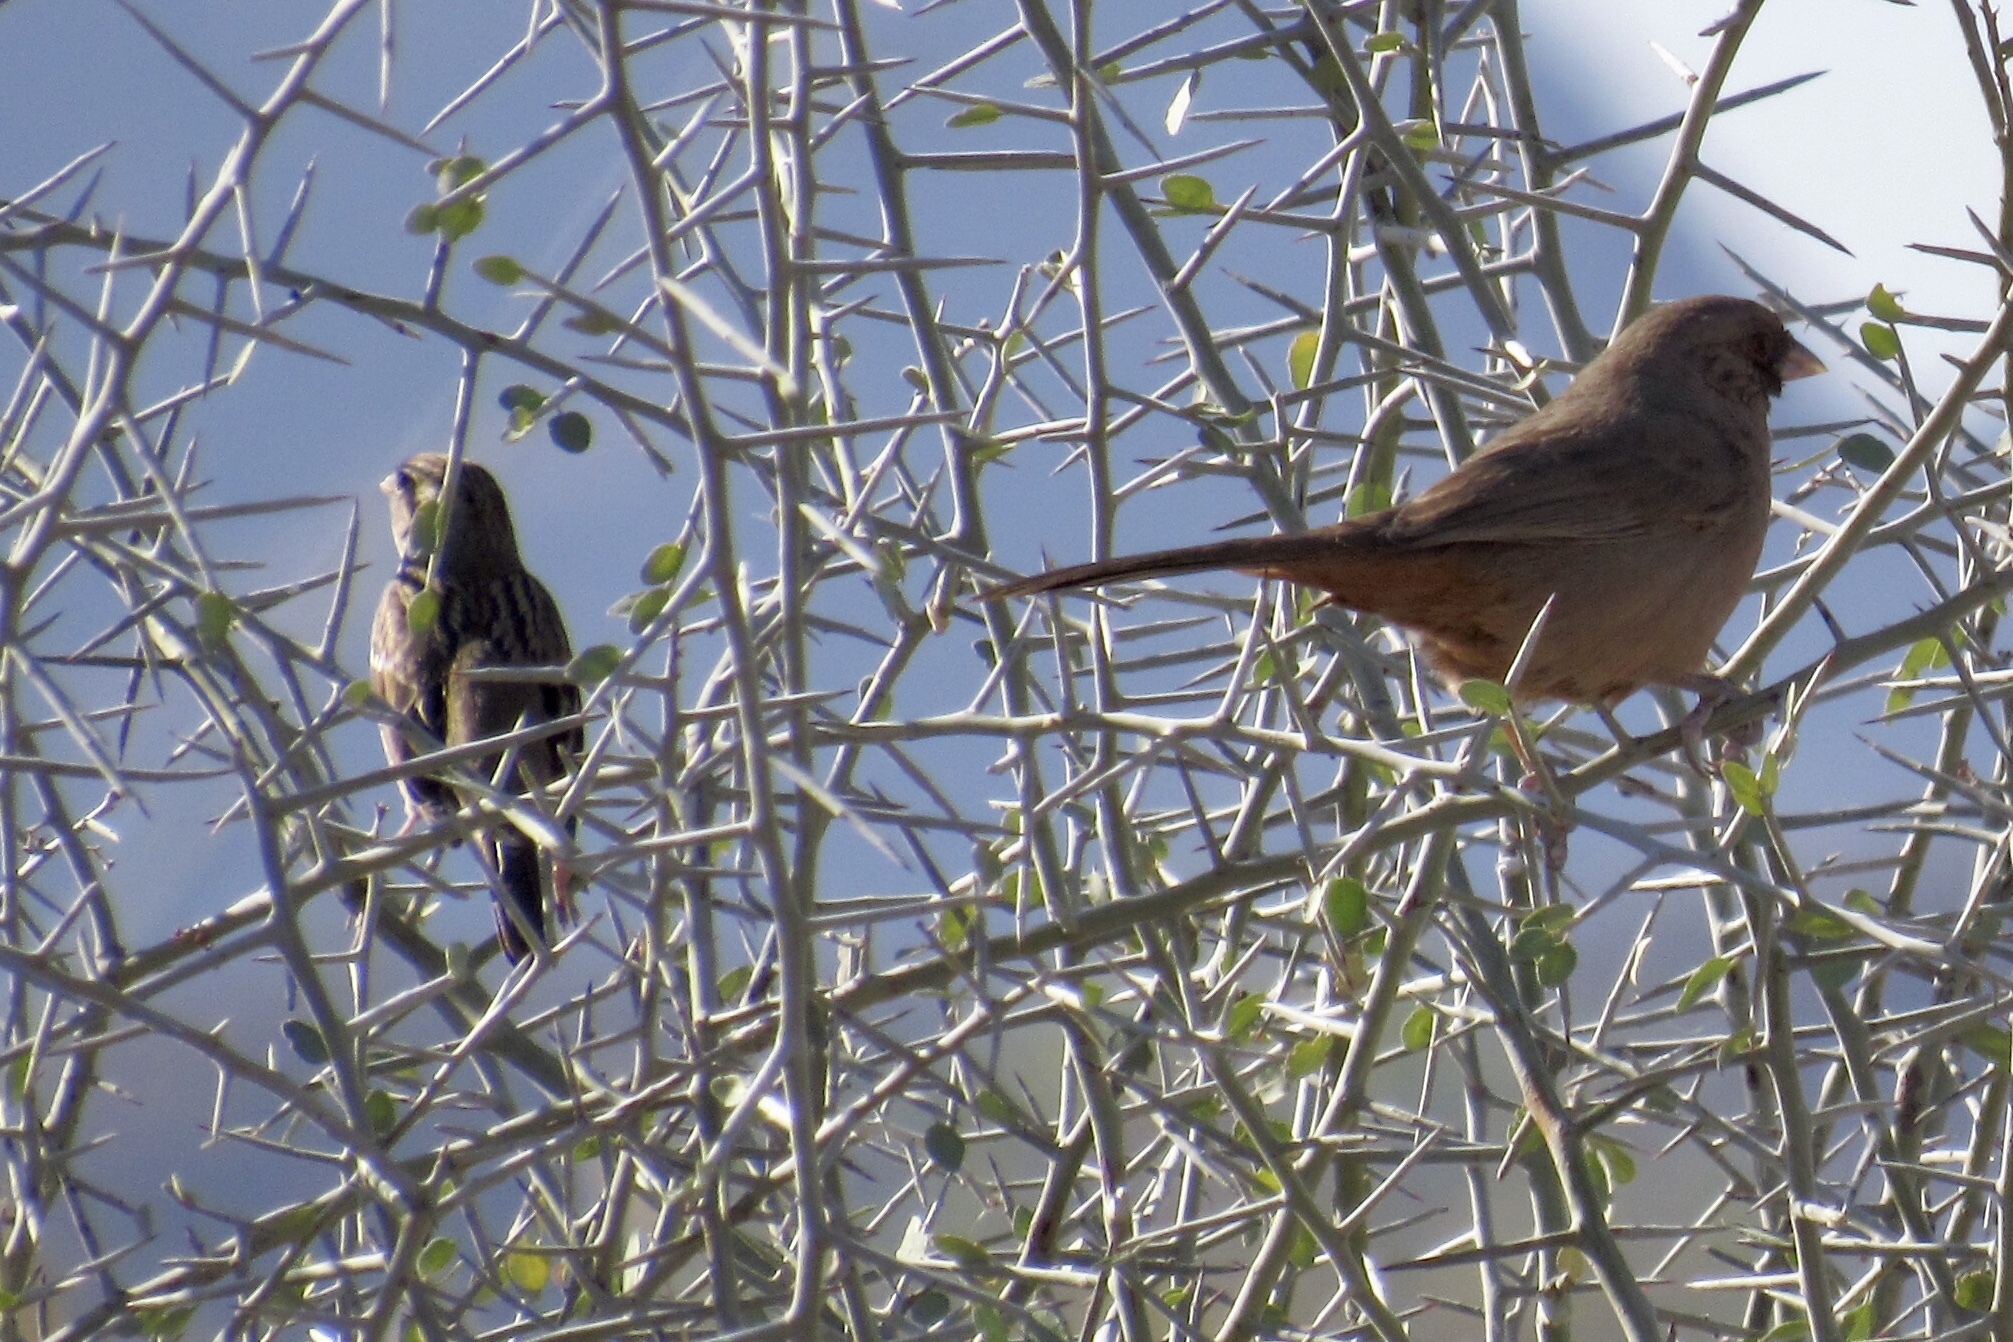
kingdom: Animalia
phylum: Chordata
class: Aves
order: Passeriformes
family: Passerellidae
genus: Melozone
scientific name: Melozone aberti
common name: Abert's towhee
